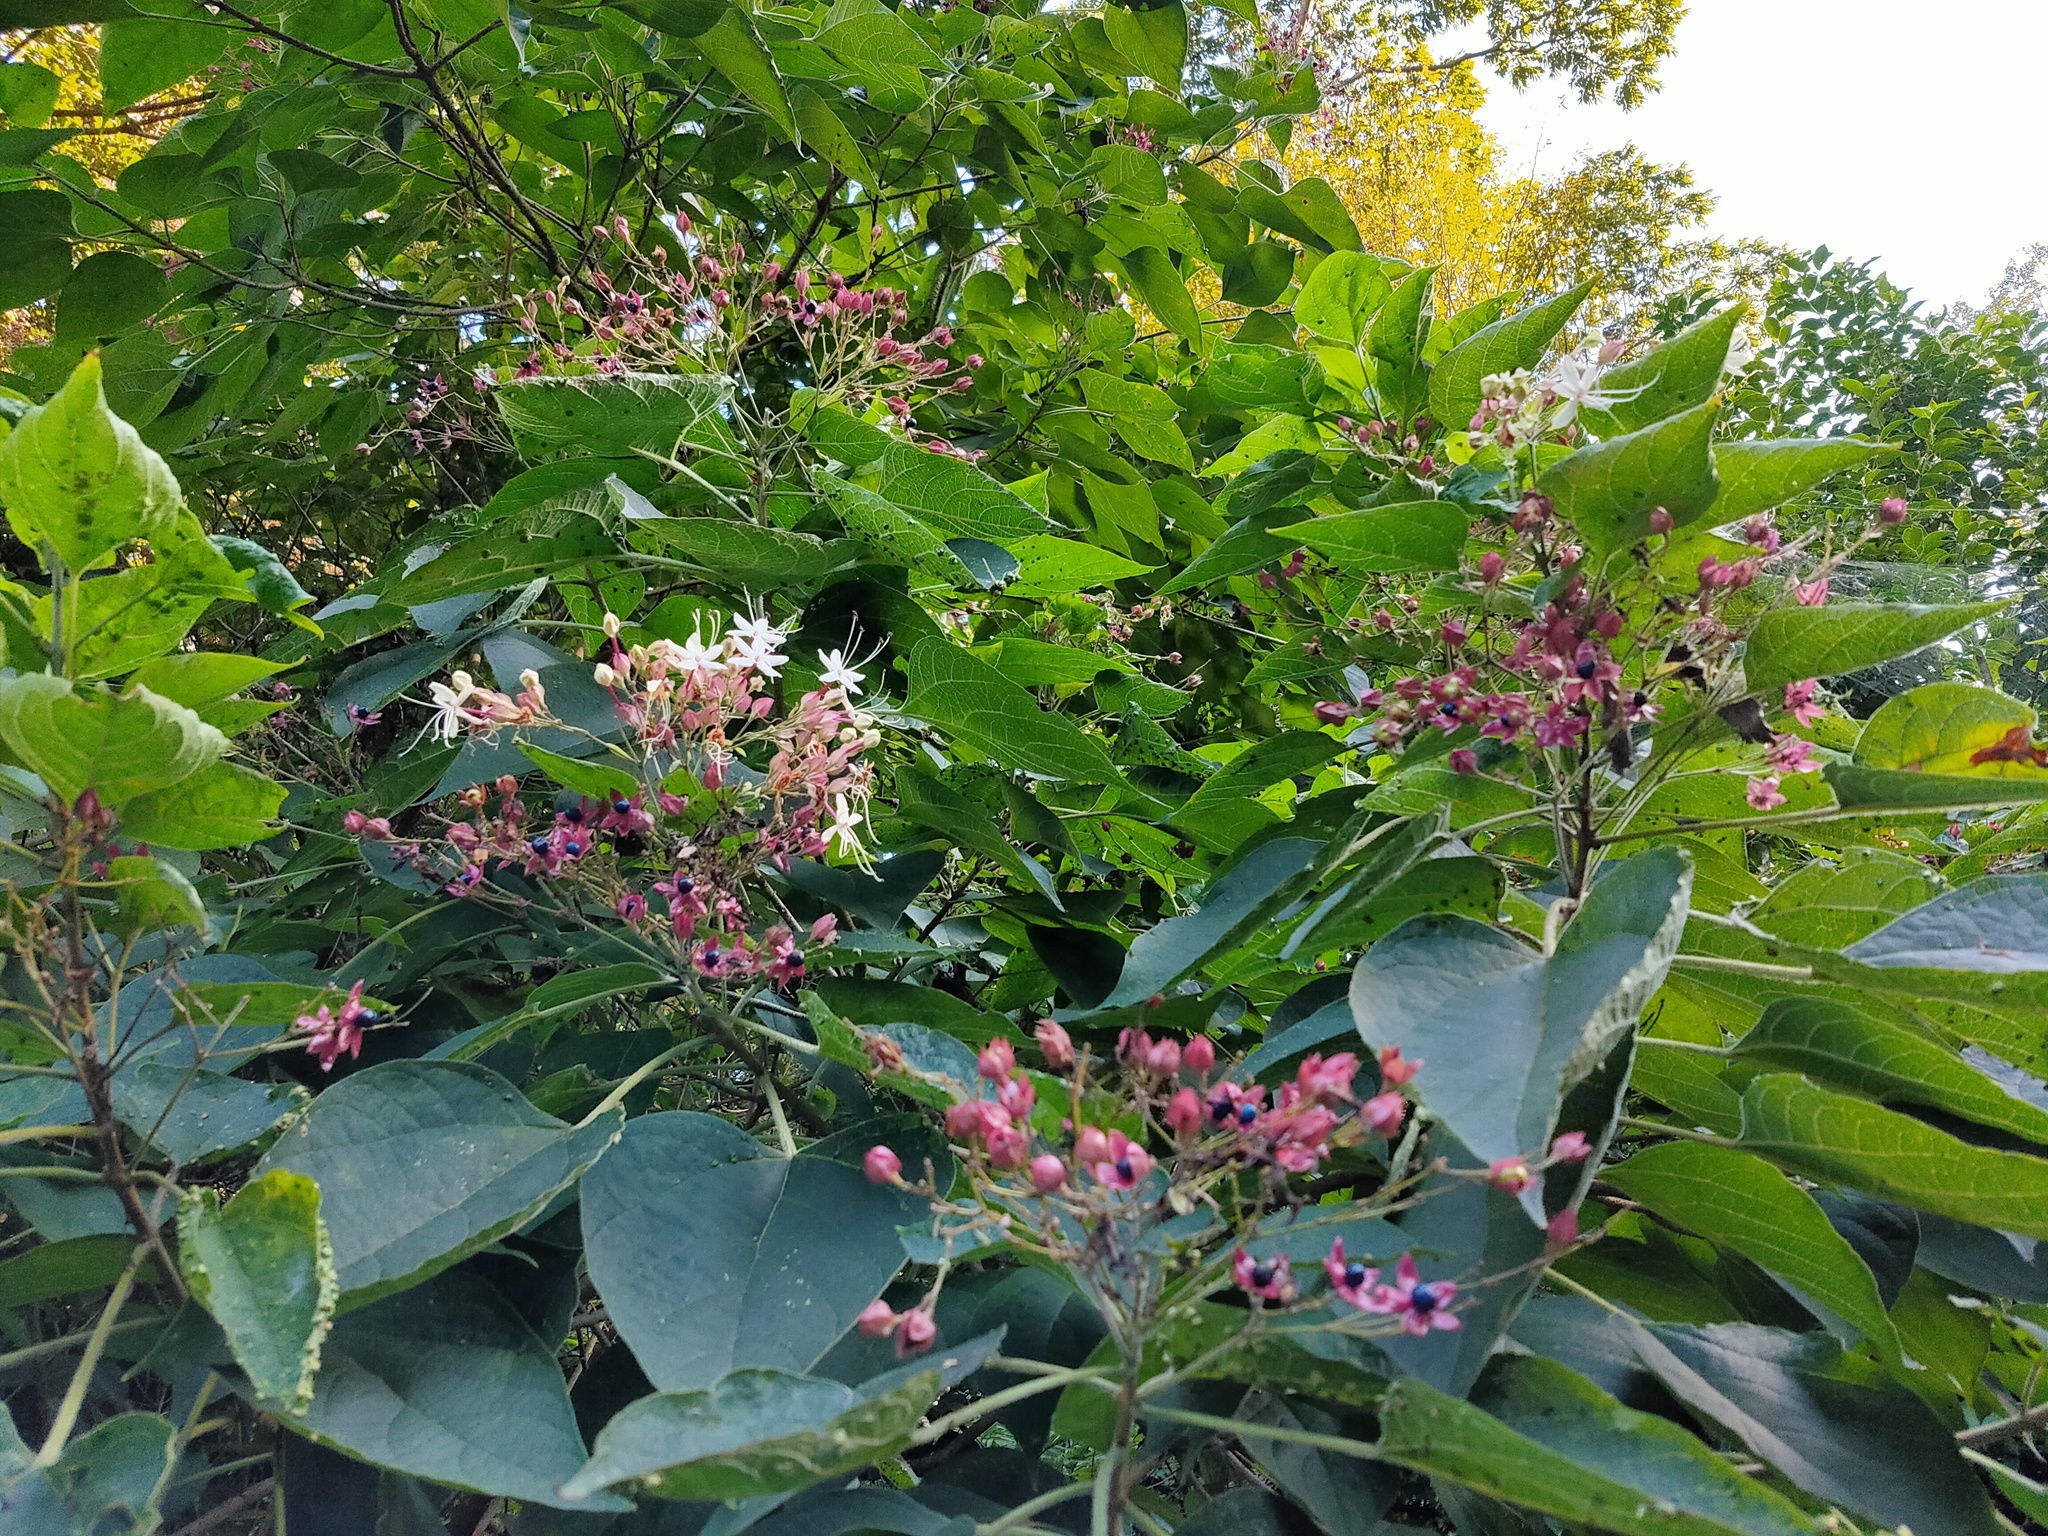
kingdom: Plantae
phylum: Tracheophyta
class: Magnoliopsida
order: Lamiales
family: Lamiaceae
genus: Clerodendrum
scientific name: Clerodendrum trichotomum
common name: Harlequin glorybower
